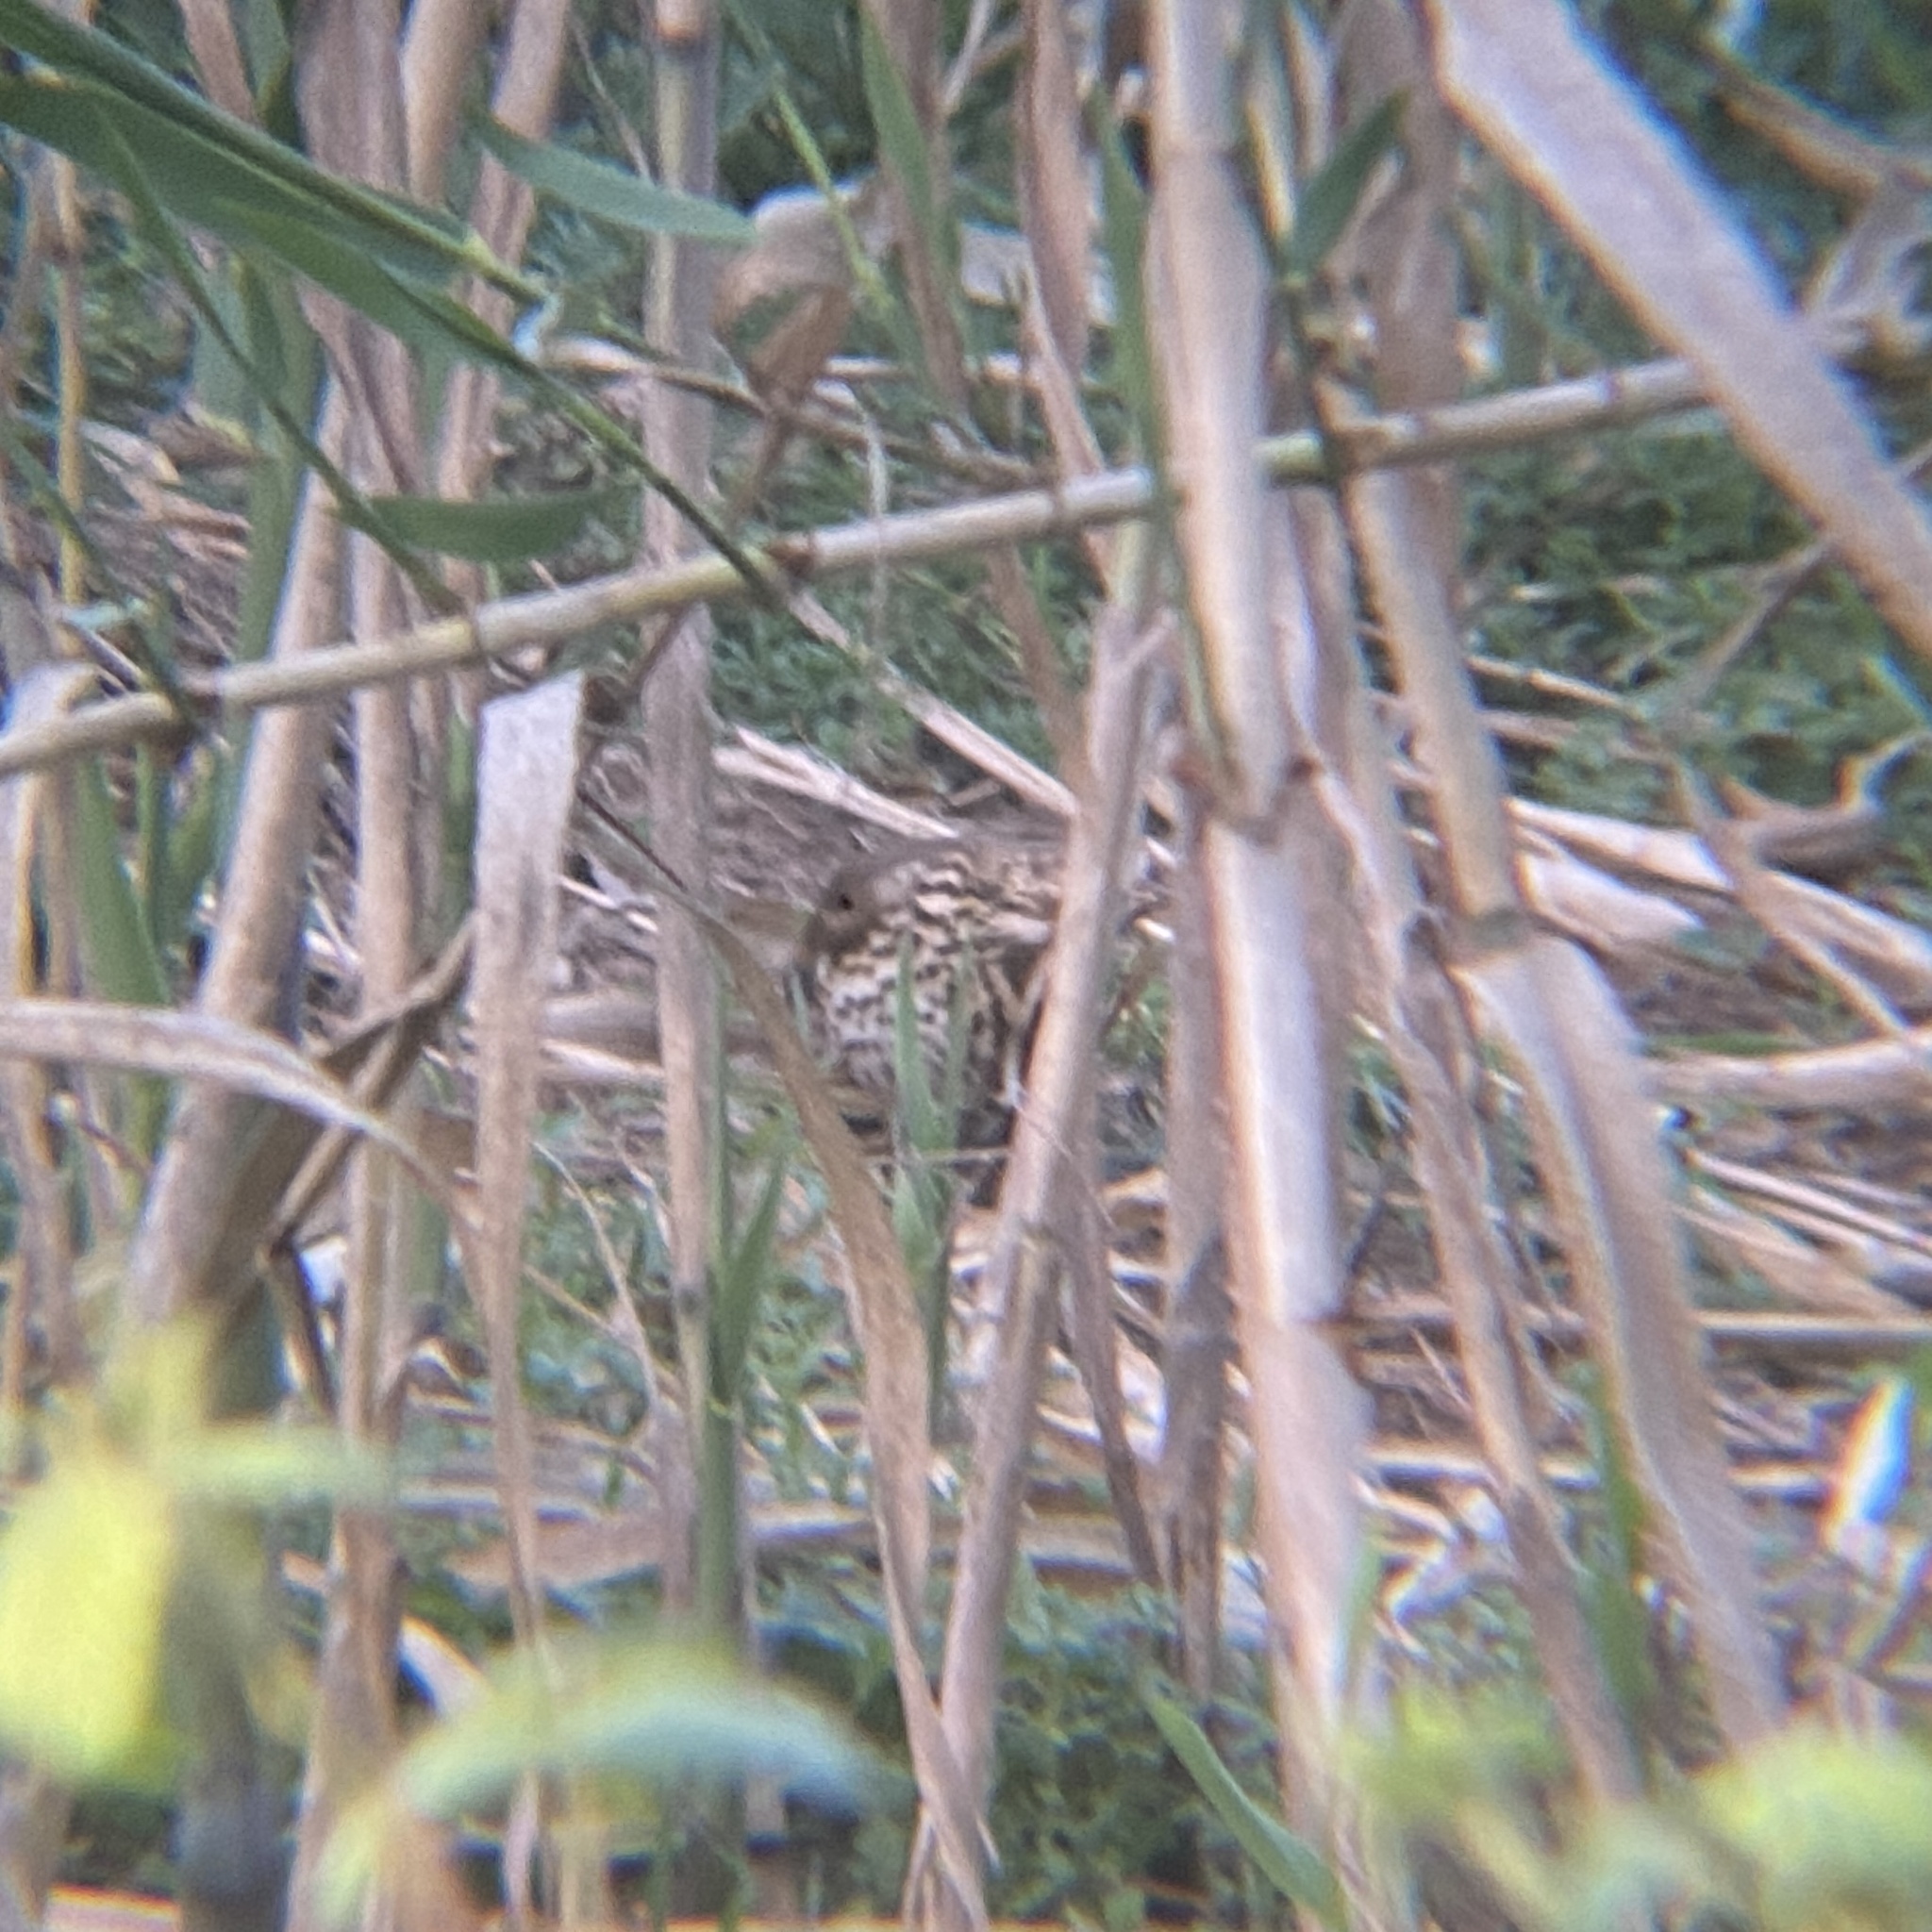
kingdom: Animalia
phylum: Chordata
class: Aves
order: Passeriformes
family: Turdidae
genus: Turdus
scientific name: Turdus philomelos
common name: Song thrush
